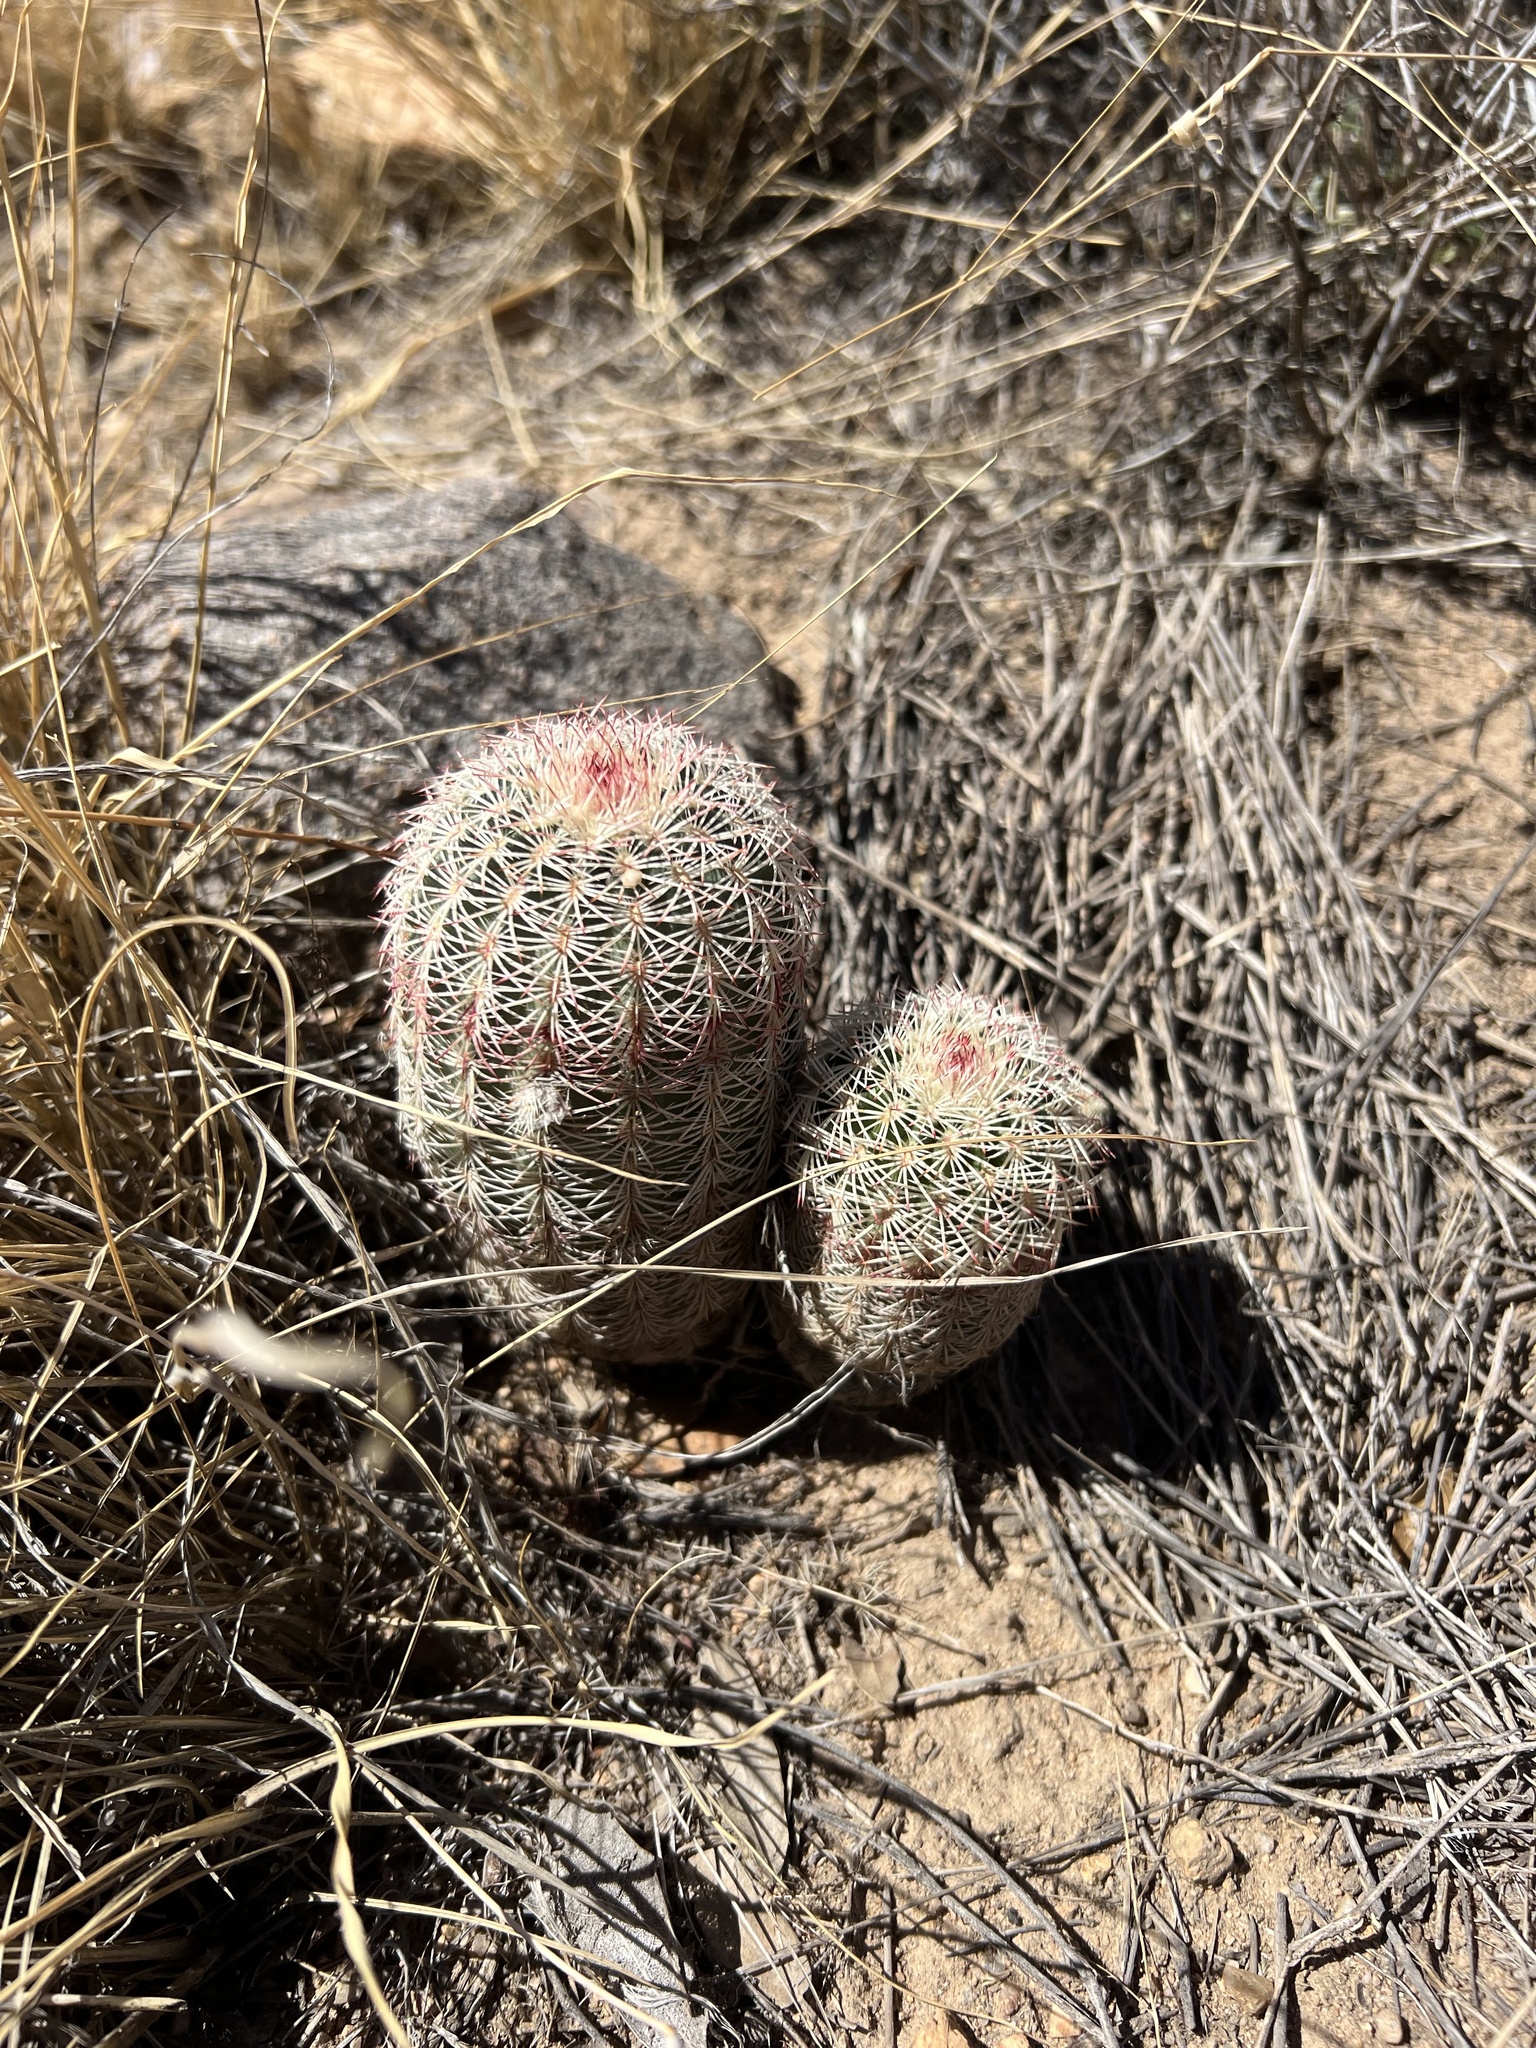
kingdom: Plantae
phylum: Tracheophyta
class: Magnoliopsida
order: Caryophyllales
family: Cactaceae
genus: Echinocereus
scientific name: Echinocereus rigidissimus
